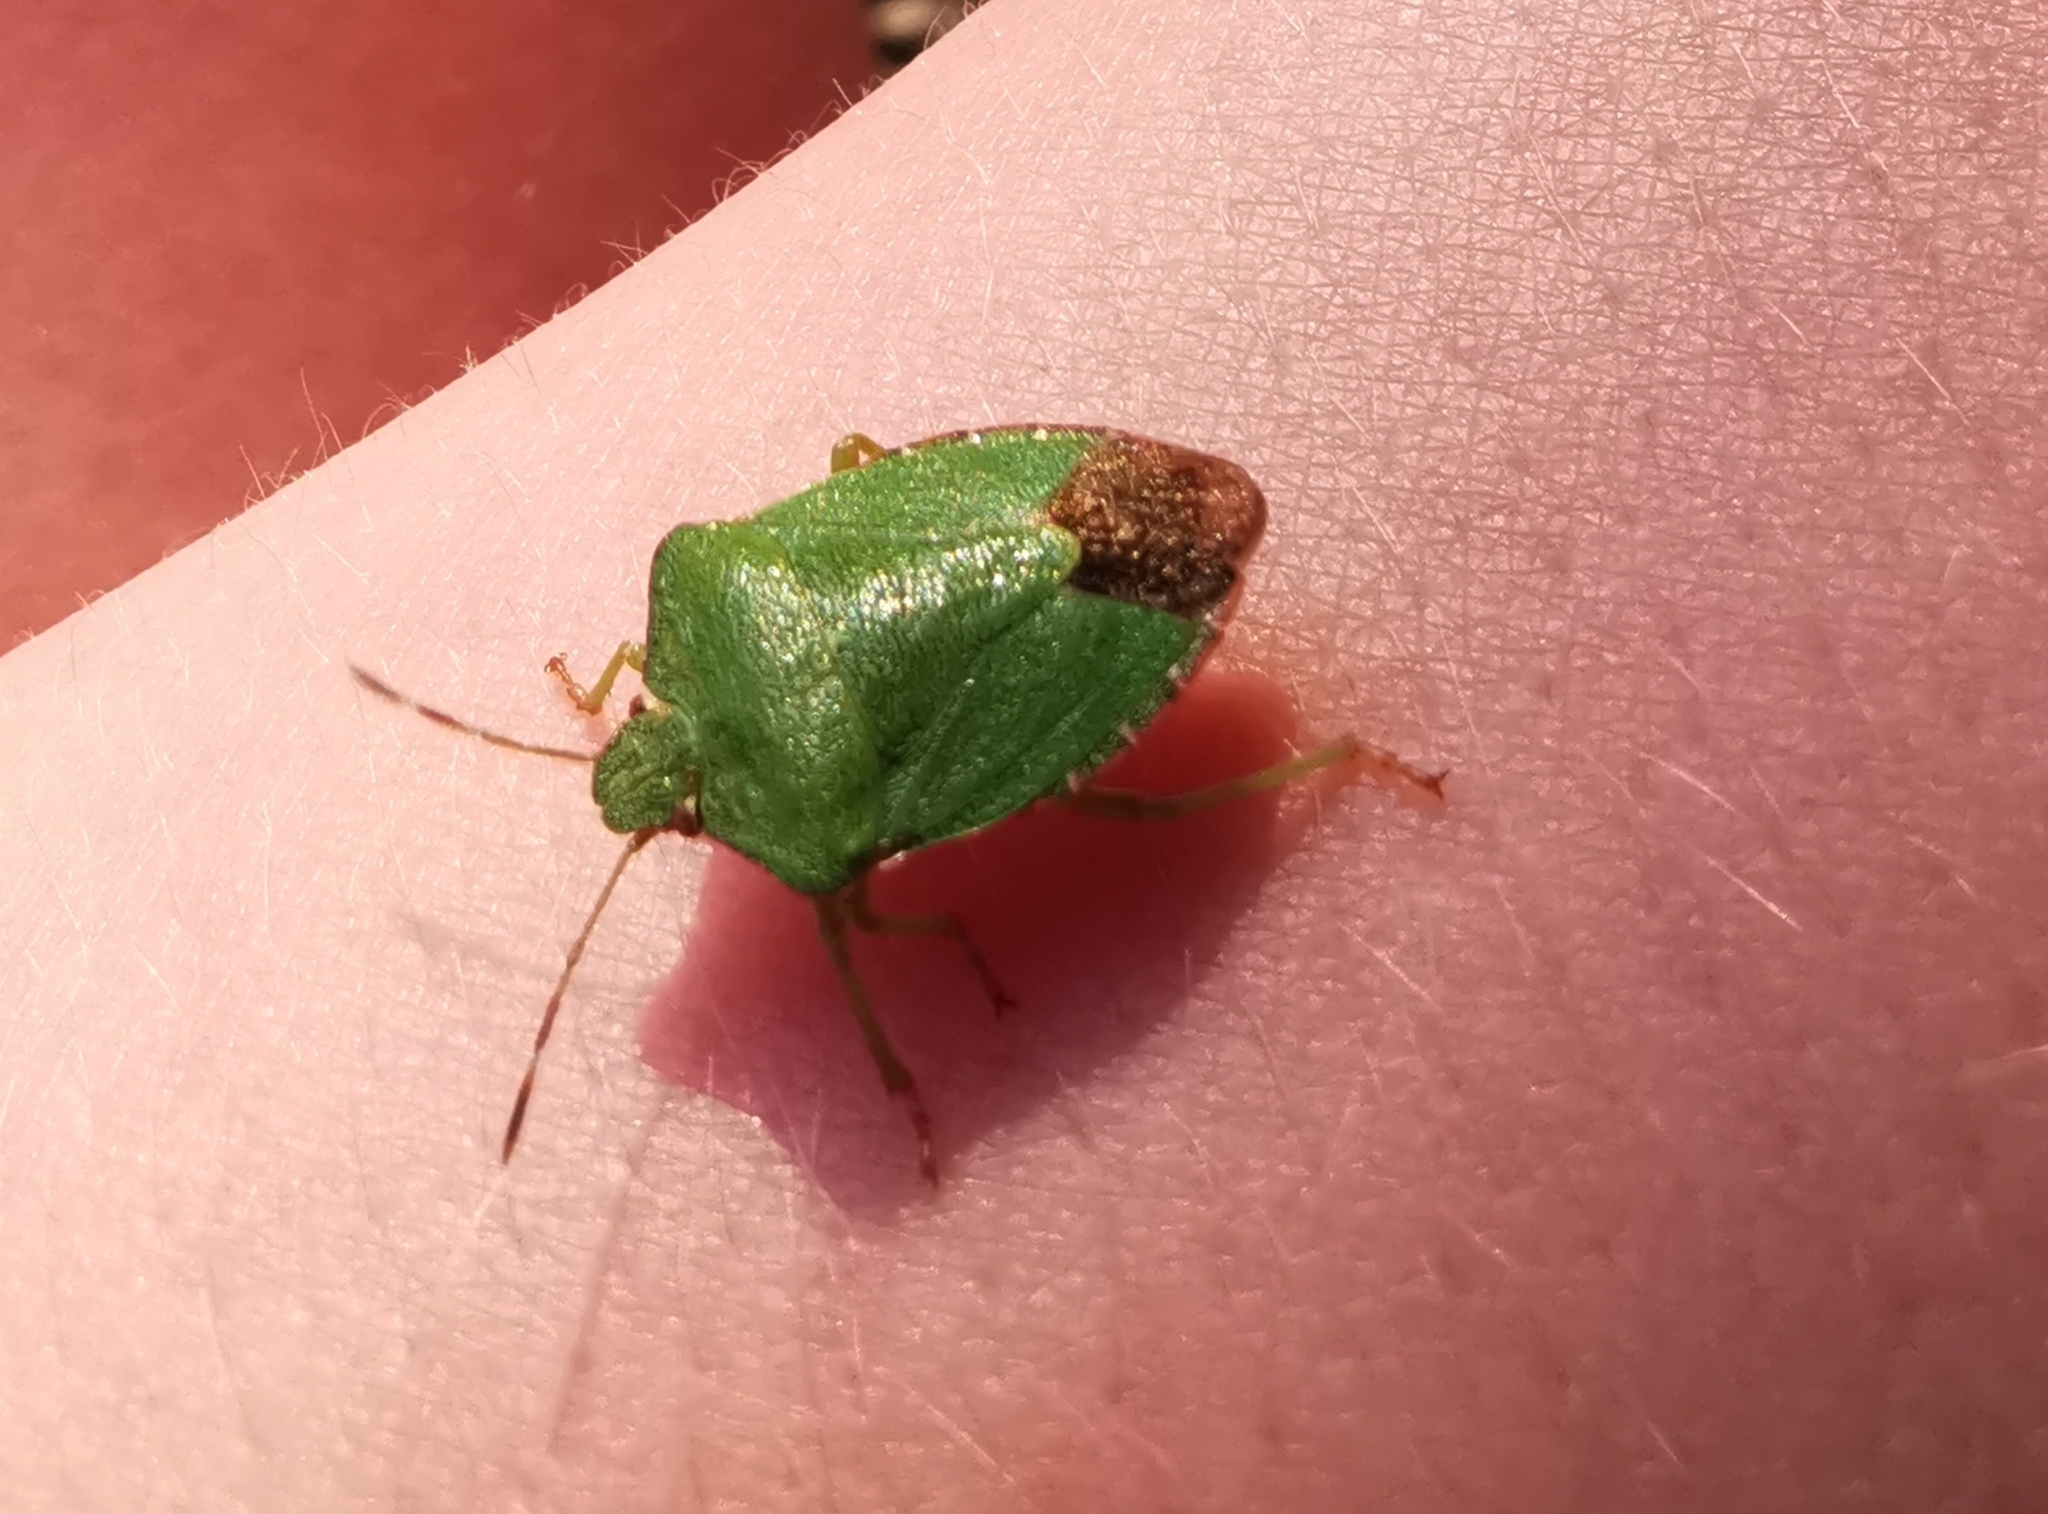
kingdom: Animalia
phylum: Arthropoda
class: Insecta
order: Hemiptera
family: Pentatomidae
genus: Palomena
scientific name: Palomena prasina
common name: Green shieldbug
